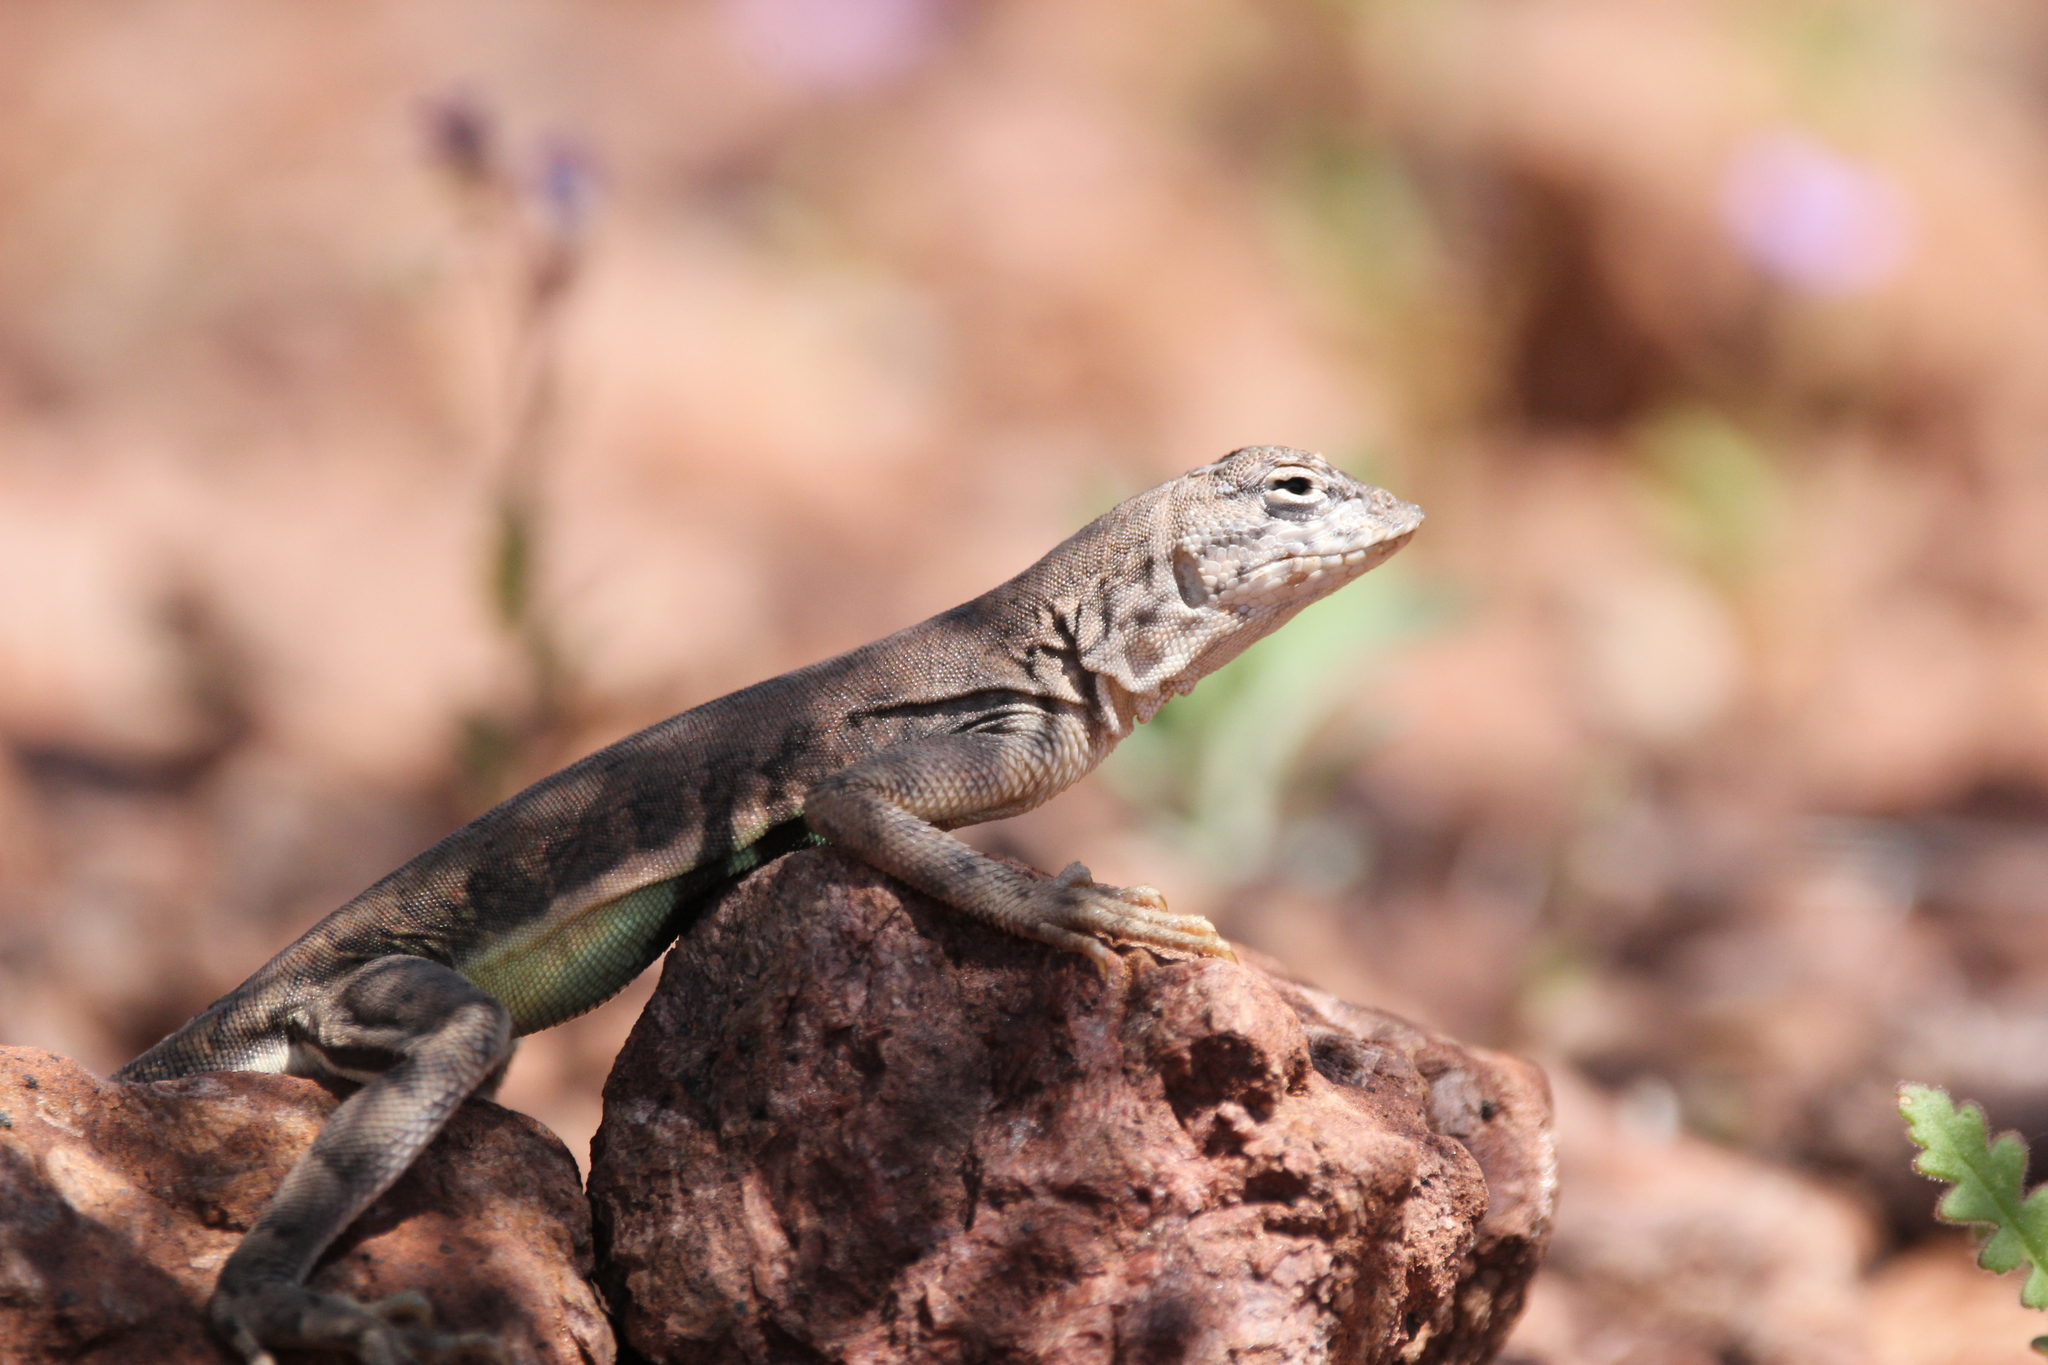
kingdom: Animalia
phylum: Chordata
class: Squamata
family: Phrynosomatidae
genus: Callisaurus
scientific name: Callisaurus draconoides
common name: Zebra-tailed lizard
